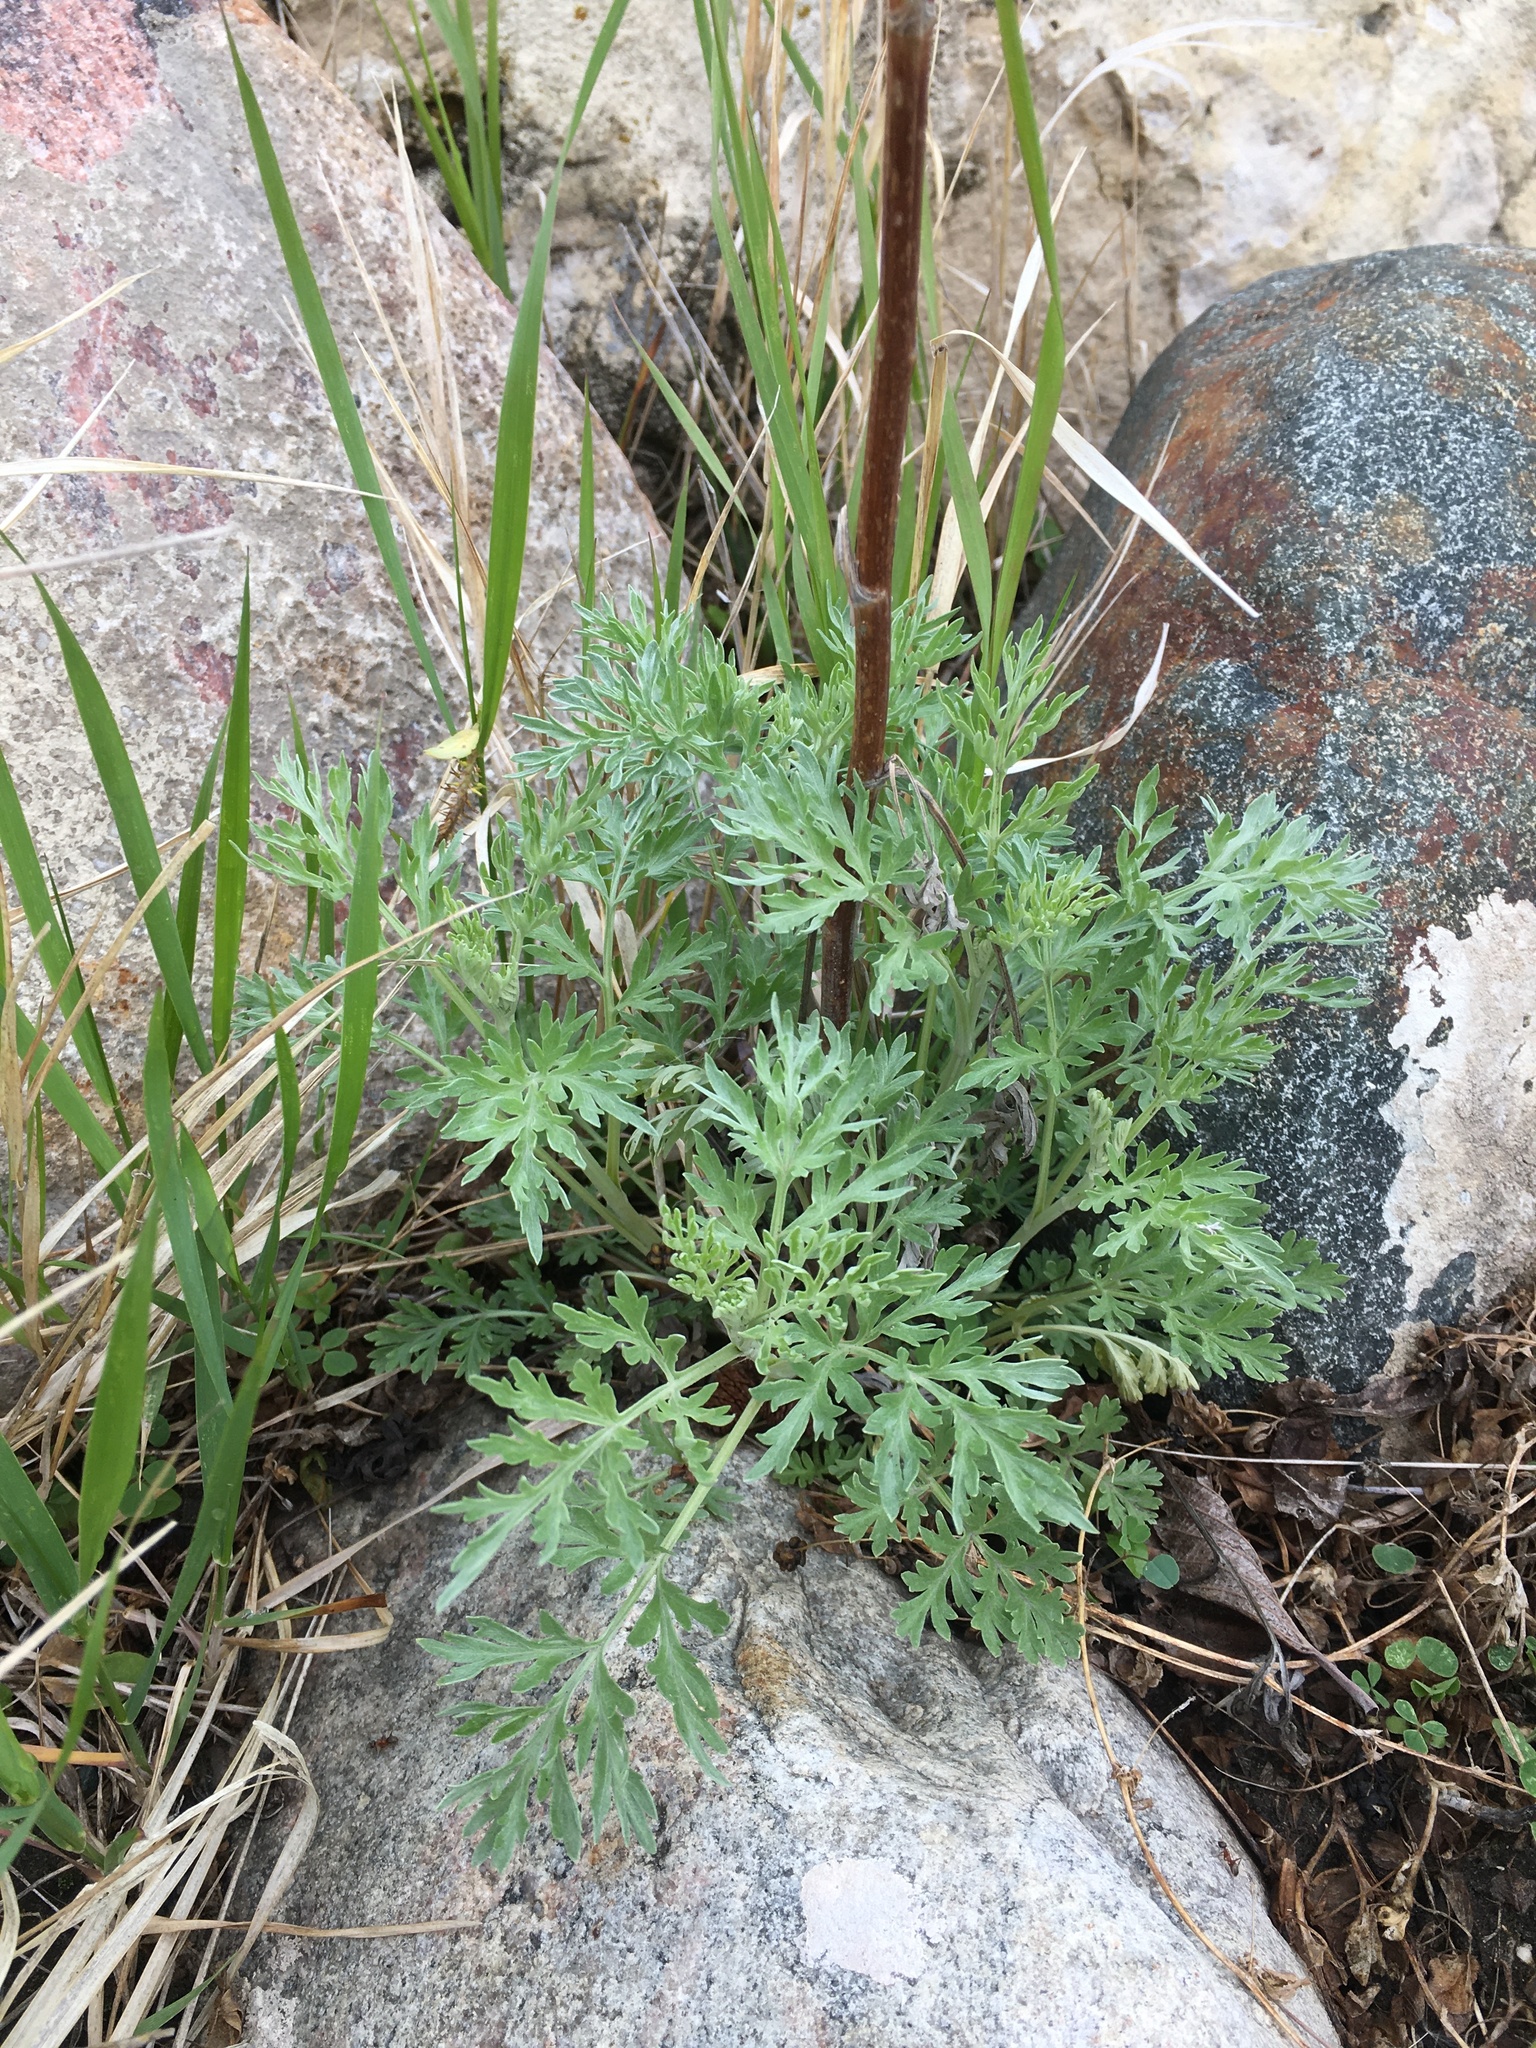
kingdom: Plantae
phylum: Tracheophyta
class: Magnoliopsida
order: Asterales
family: Asteraceae
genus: Artemisia
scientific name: Artemisia absinthium
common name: Wormwood
